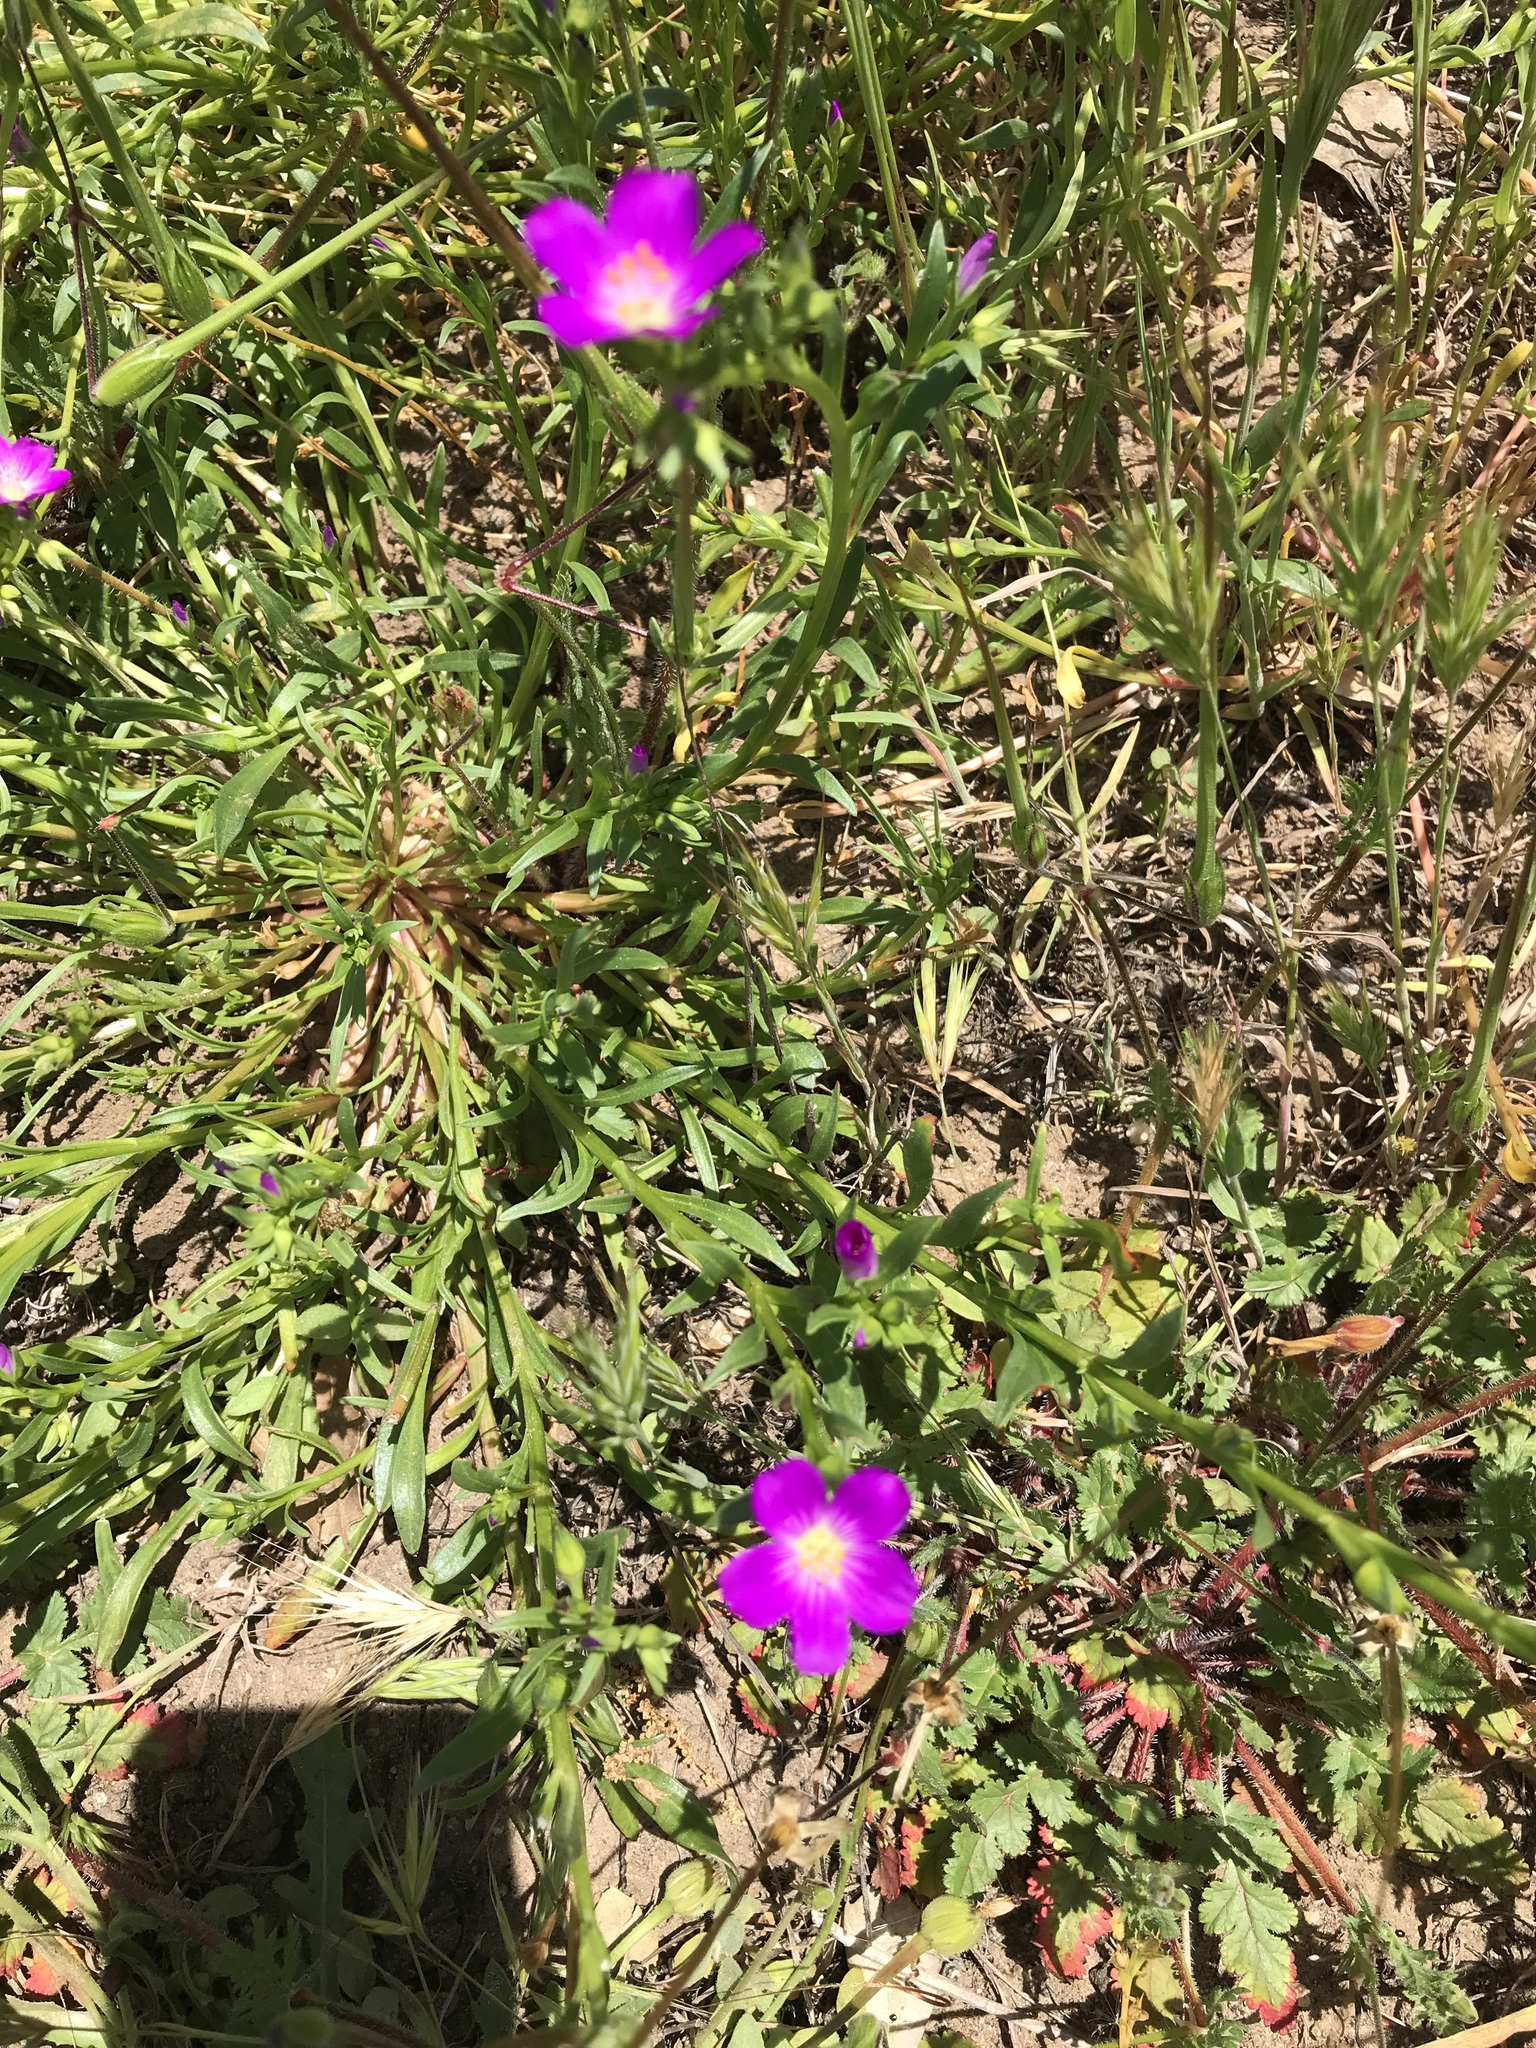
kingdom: Plantae
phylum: Tracheophyta
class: Magnoliopsida
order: Caryophyllales
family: Montiaceae
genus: Calandrinia
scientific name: Calandrinia menziesii
